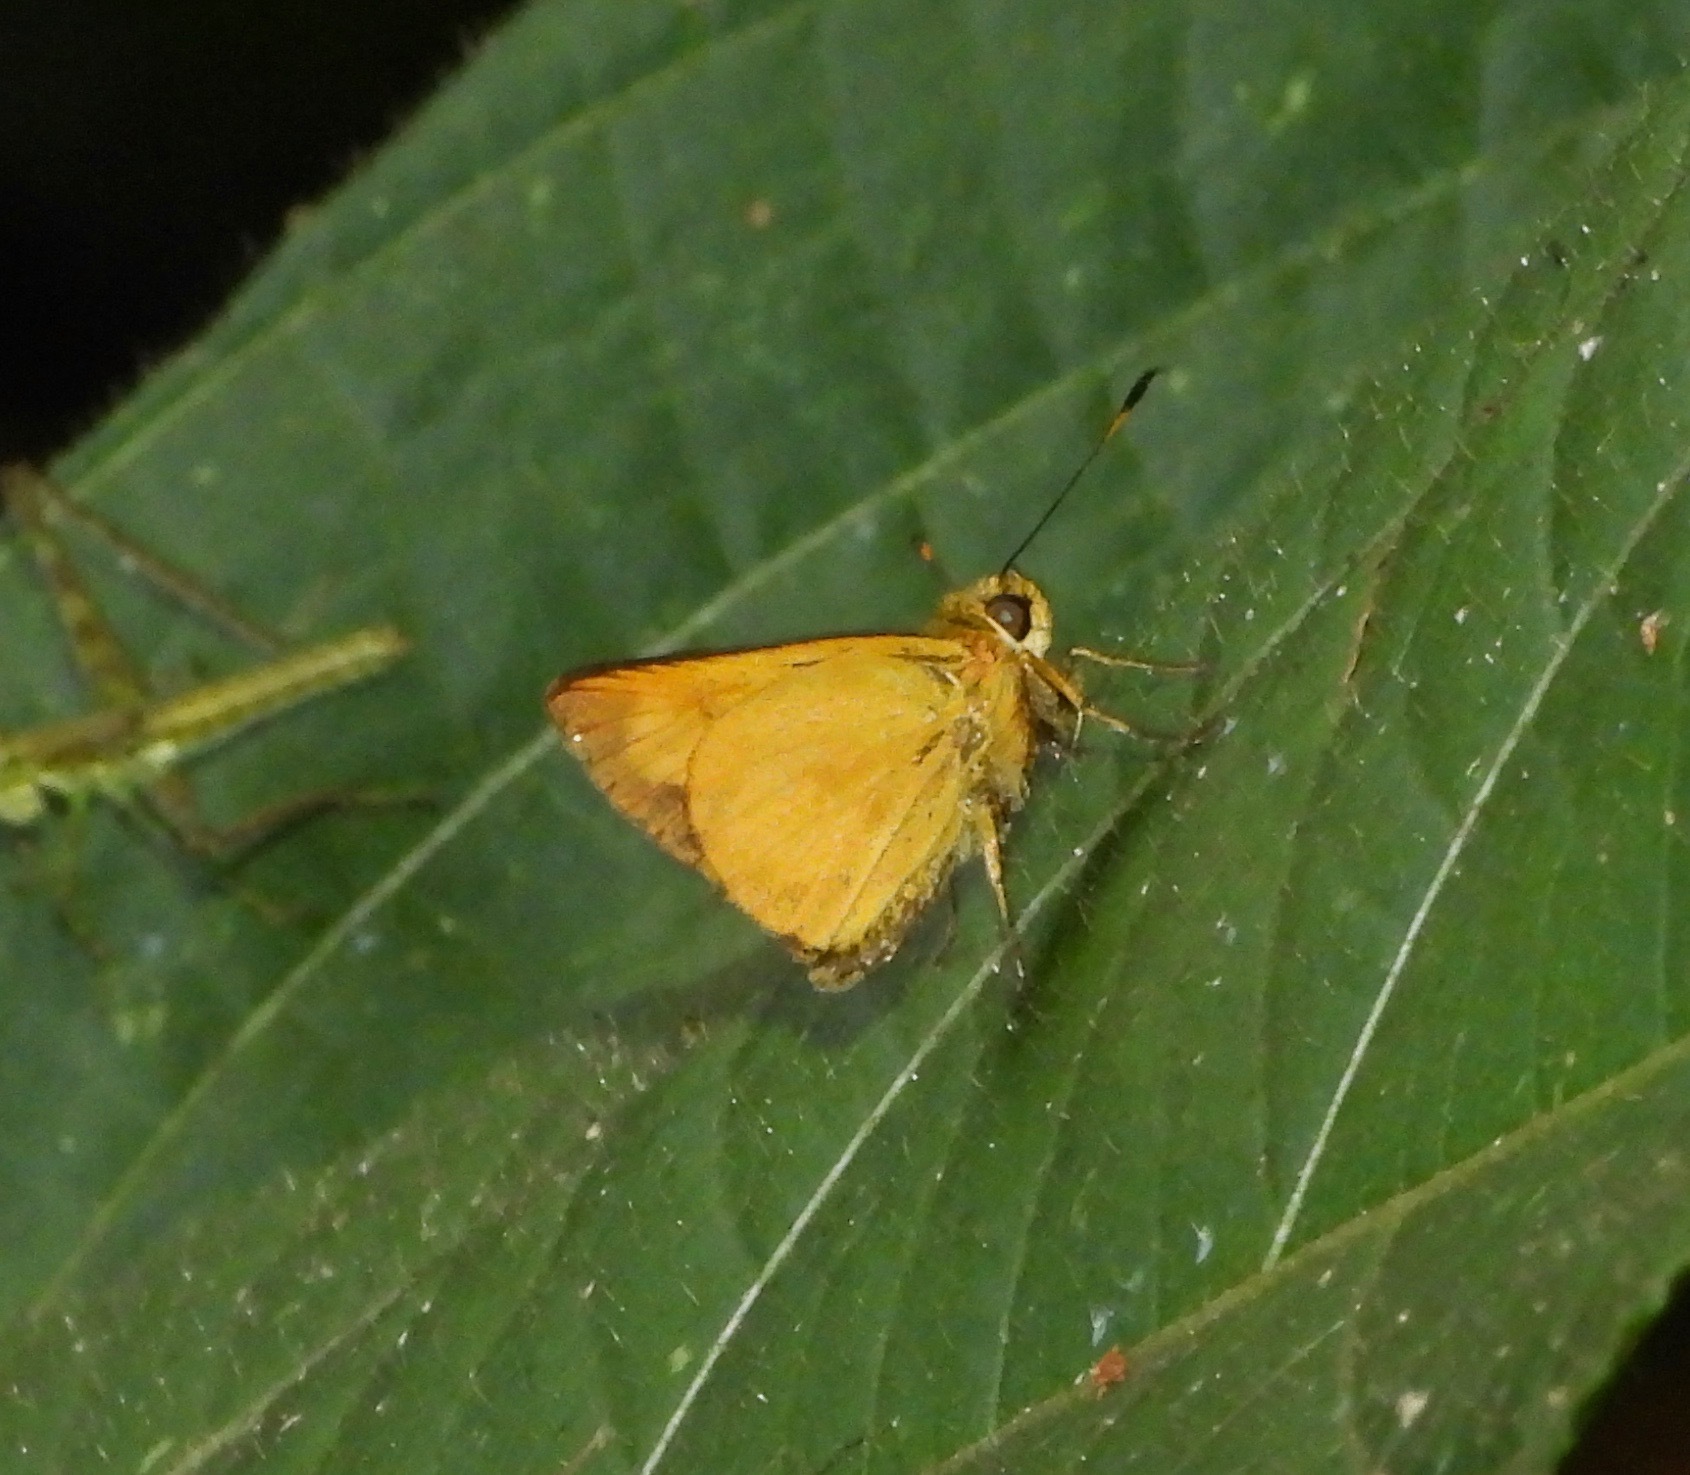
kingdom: Animalia
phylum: Arthropoda
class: Insecta
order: Lepidoptera
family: Hesperiidae
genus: Anthoptus
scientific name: Anthoptus epictetus
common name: Trailside skipper
